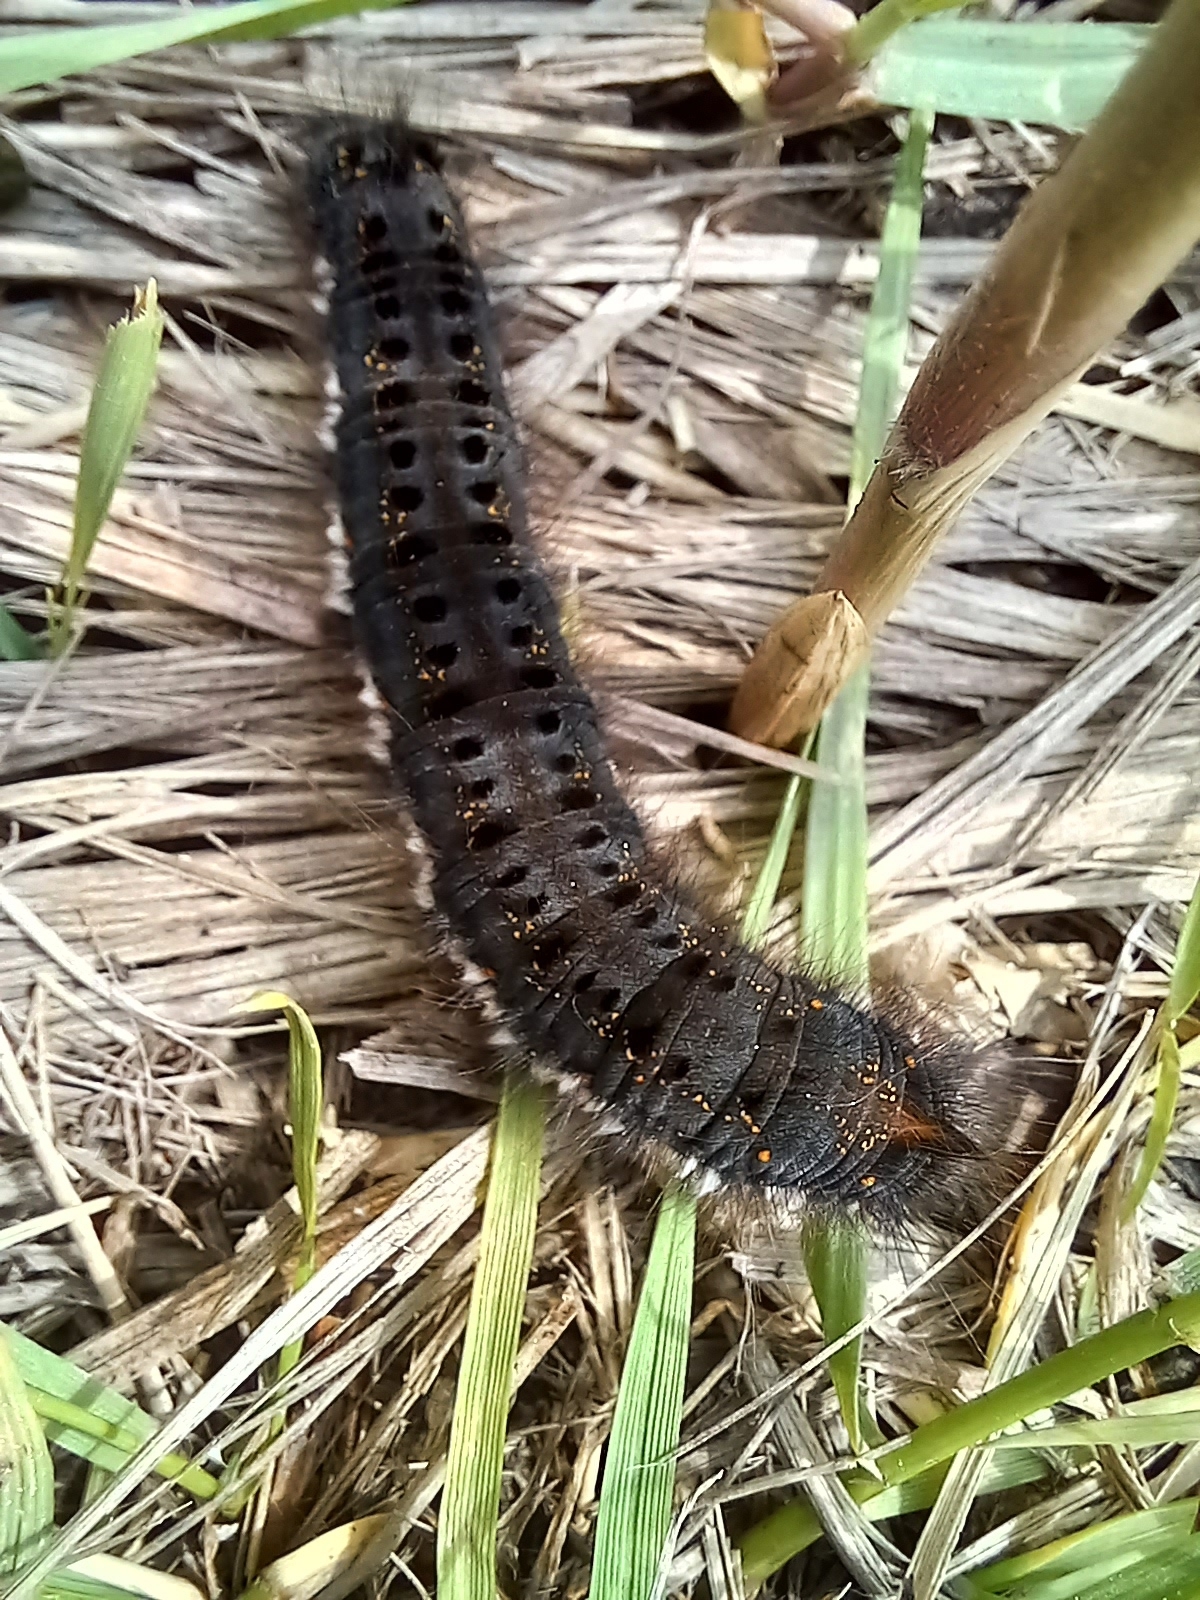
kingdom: Animalia
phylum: Arthropoda
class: Insecta
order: Lepidoptera
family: Lasiocampidae
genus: Euthrix
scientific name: Euthrix potatoria
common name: Drinker
